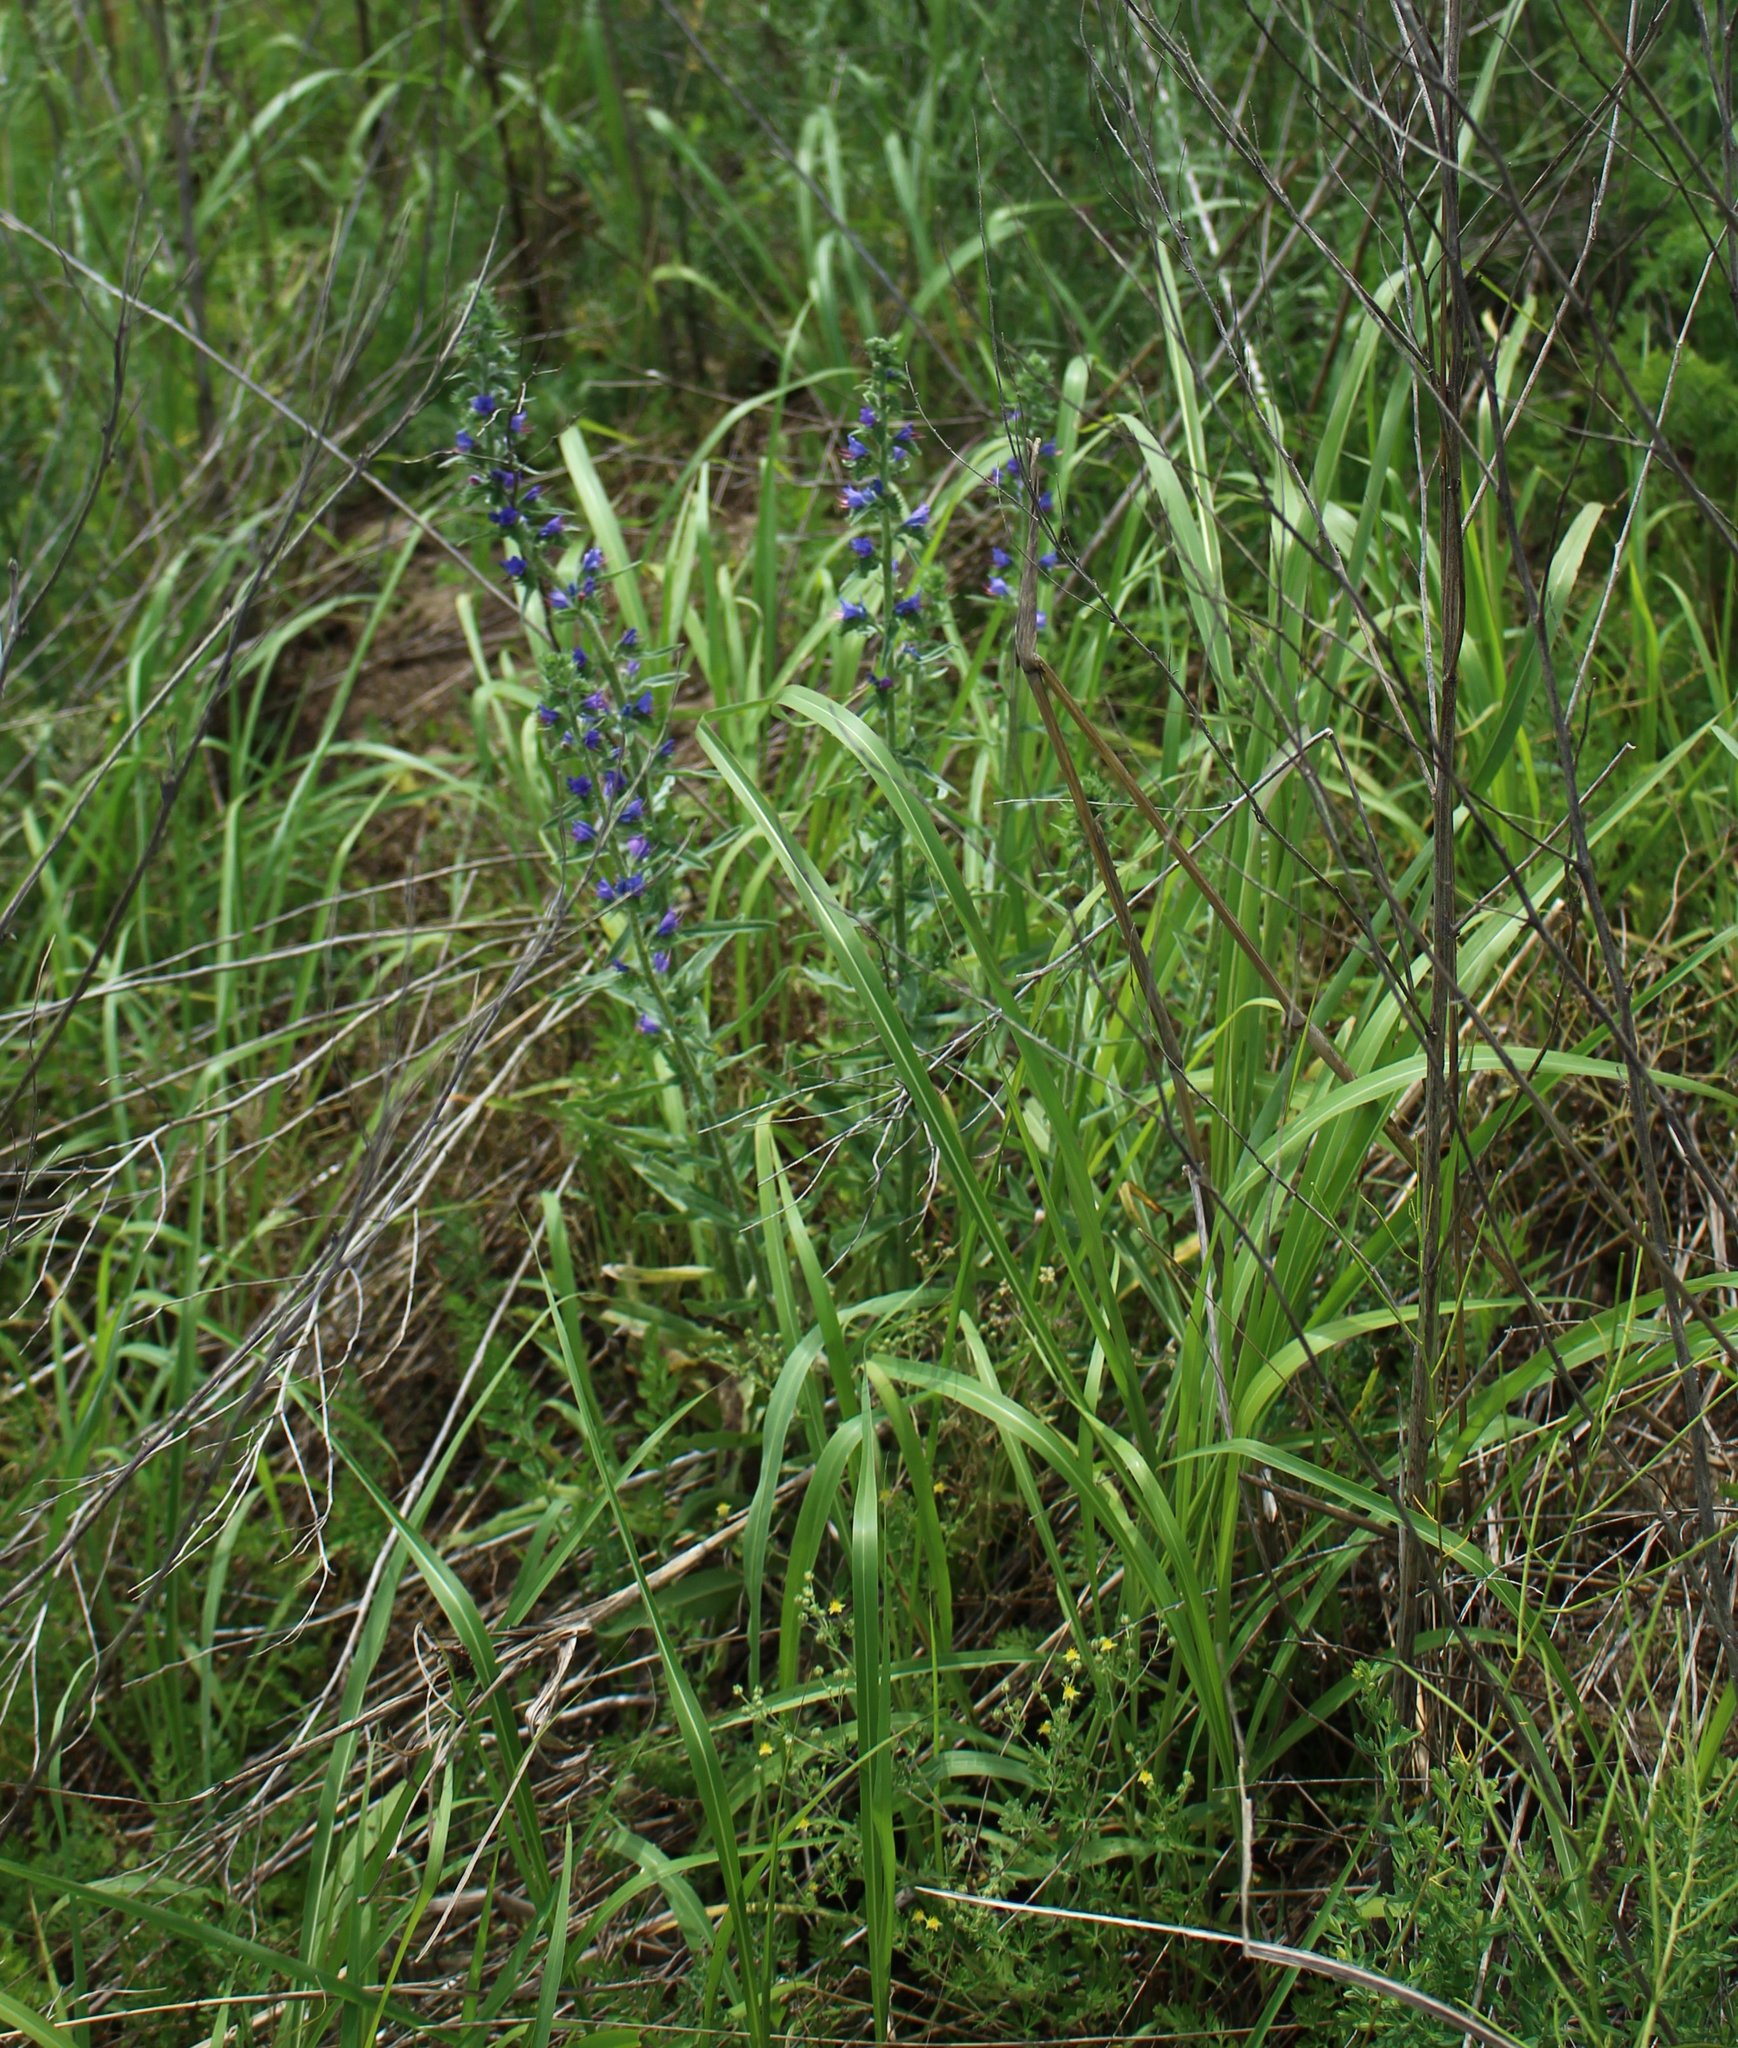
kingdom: Plantae
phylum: Tracheophyta
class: Liliopsida
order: Poales
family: Poaceae
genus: Sorghum
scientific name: Sorghum halepense
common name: Johnson-grass
